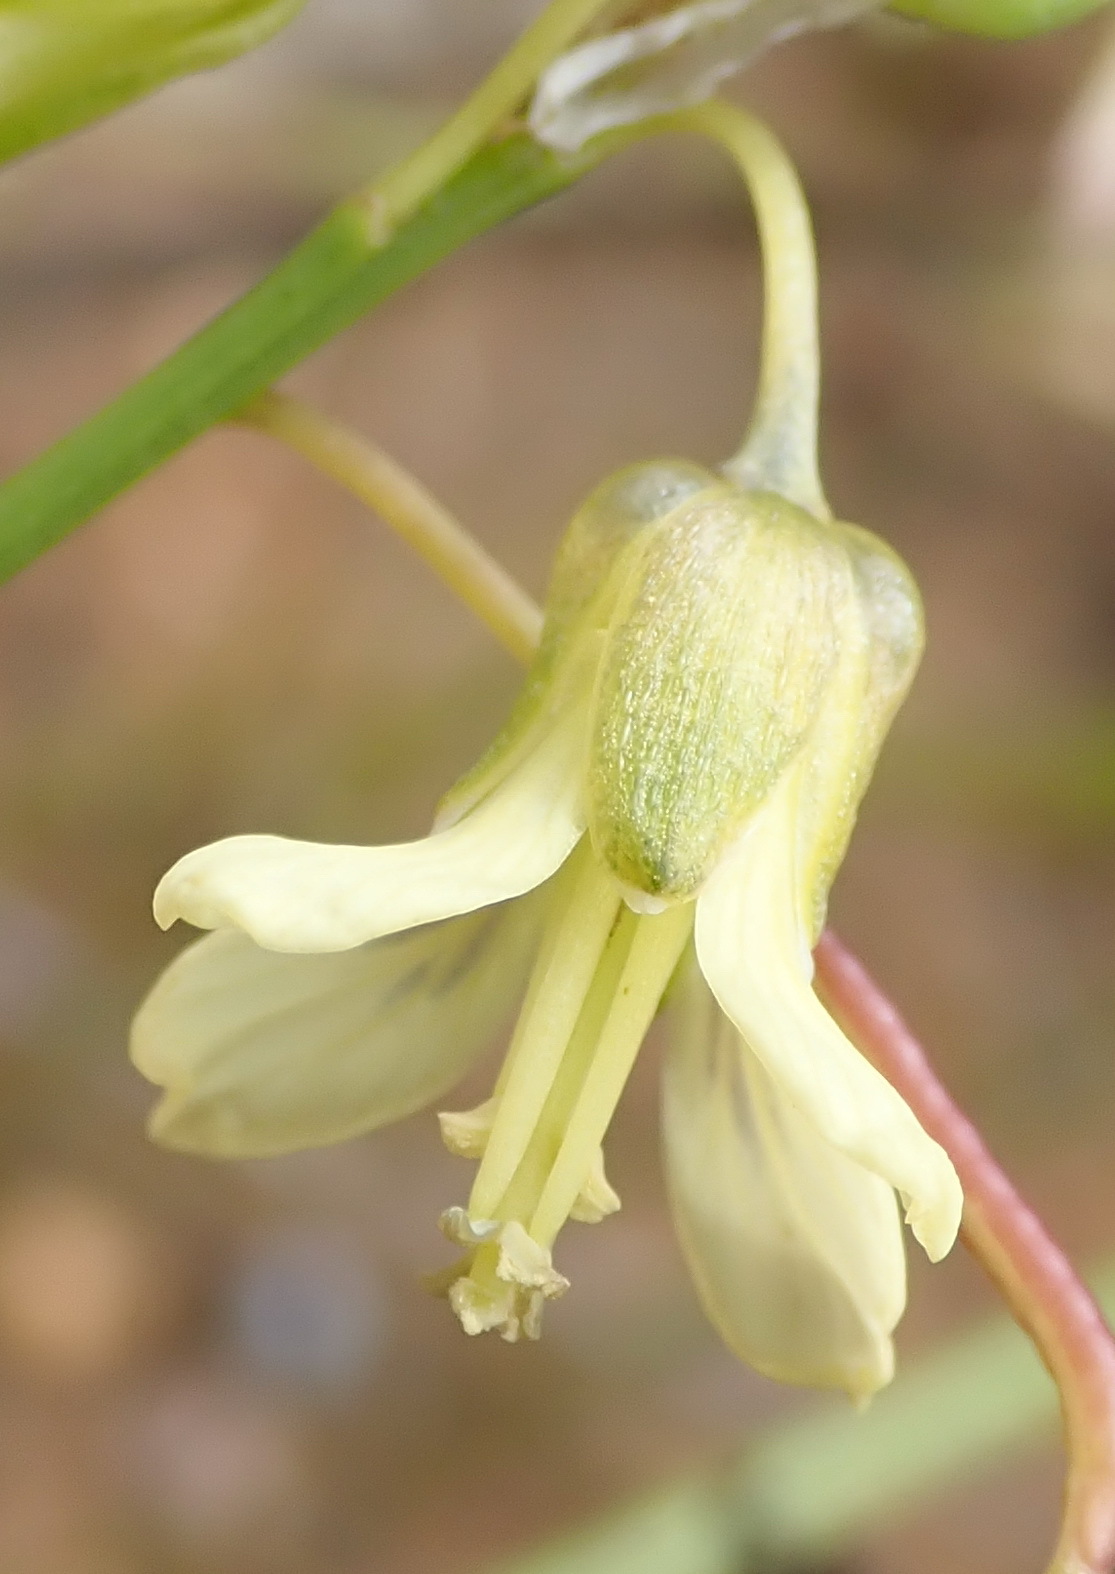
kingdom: Plantae
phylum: Tracheophyta
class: Magnoliopsida
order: Brassicales
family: Brassicaceae
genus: Heliophila
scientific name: Heliophila elongata
